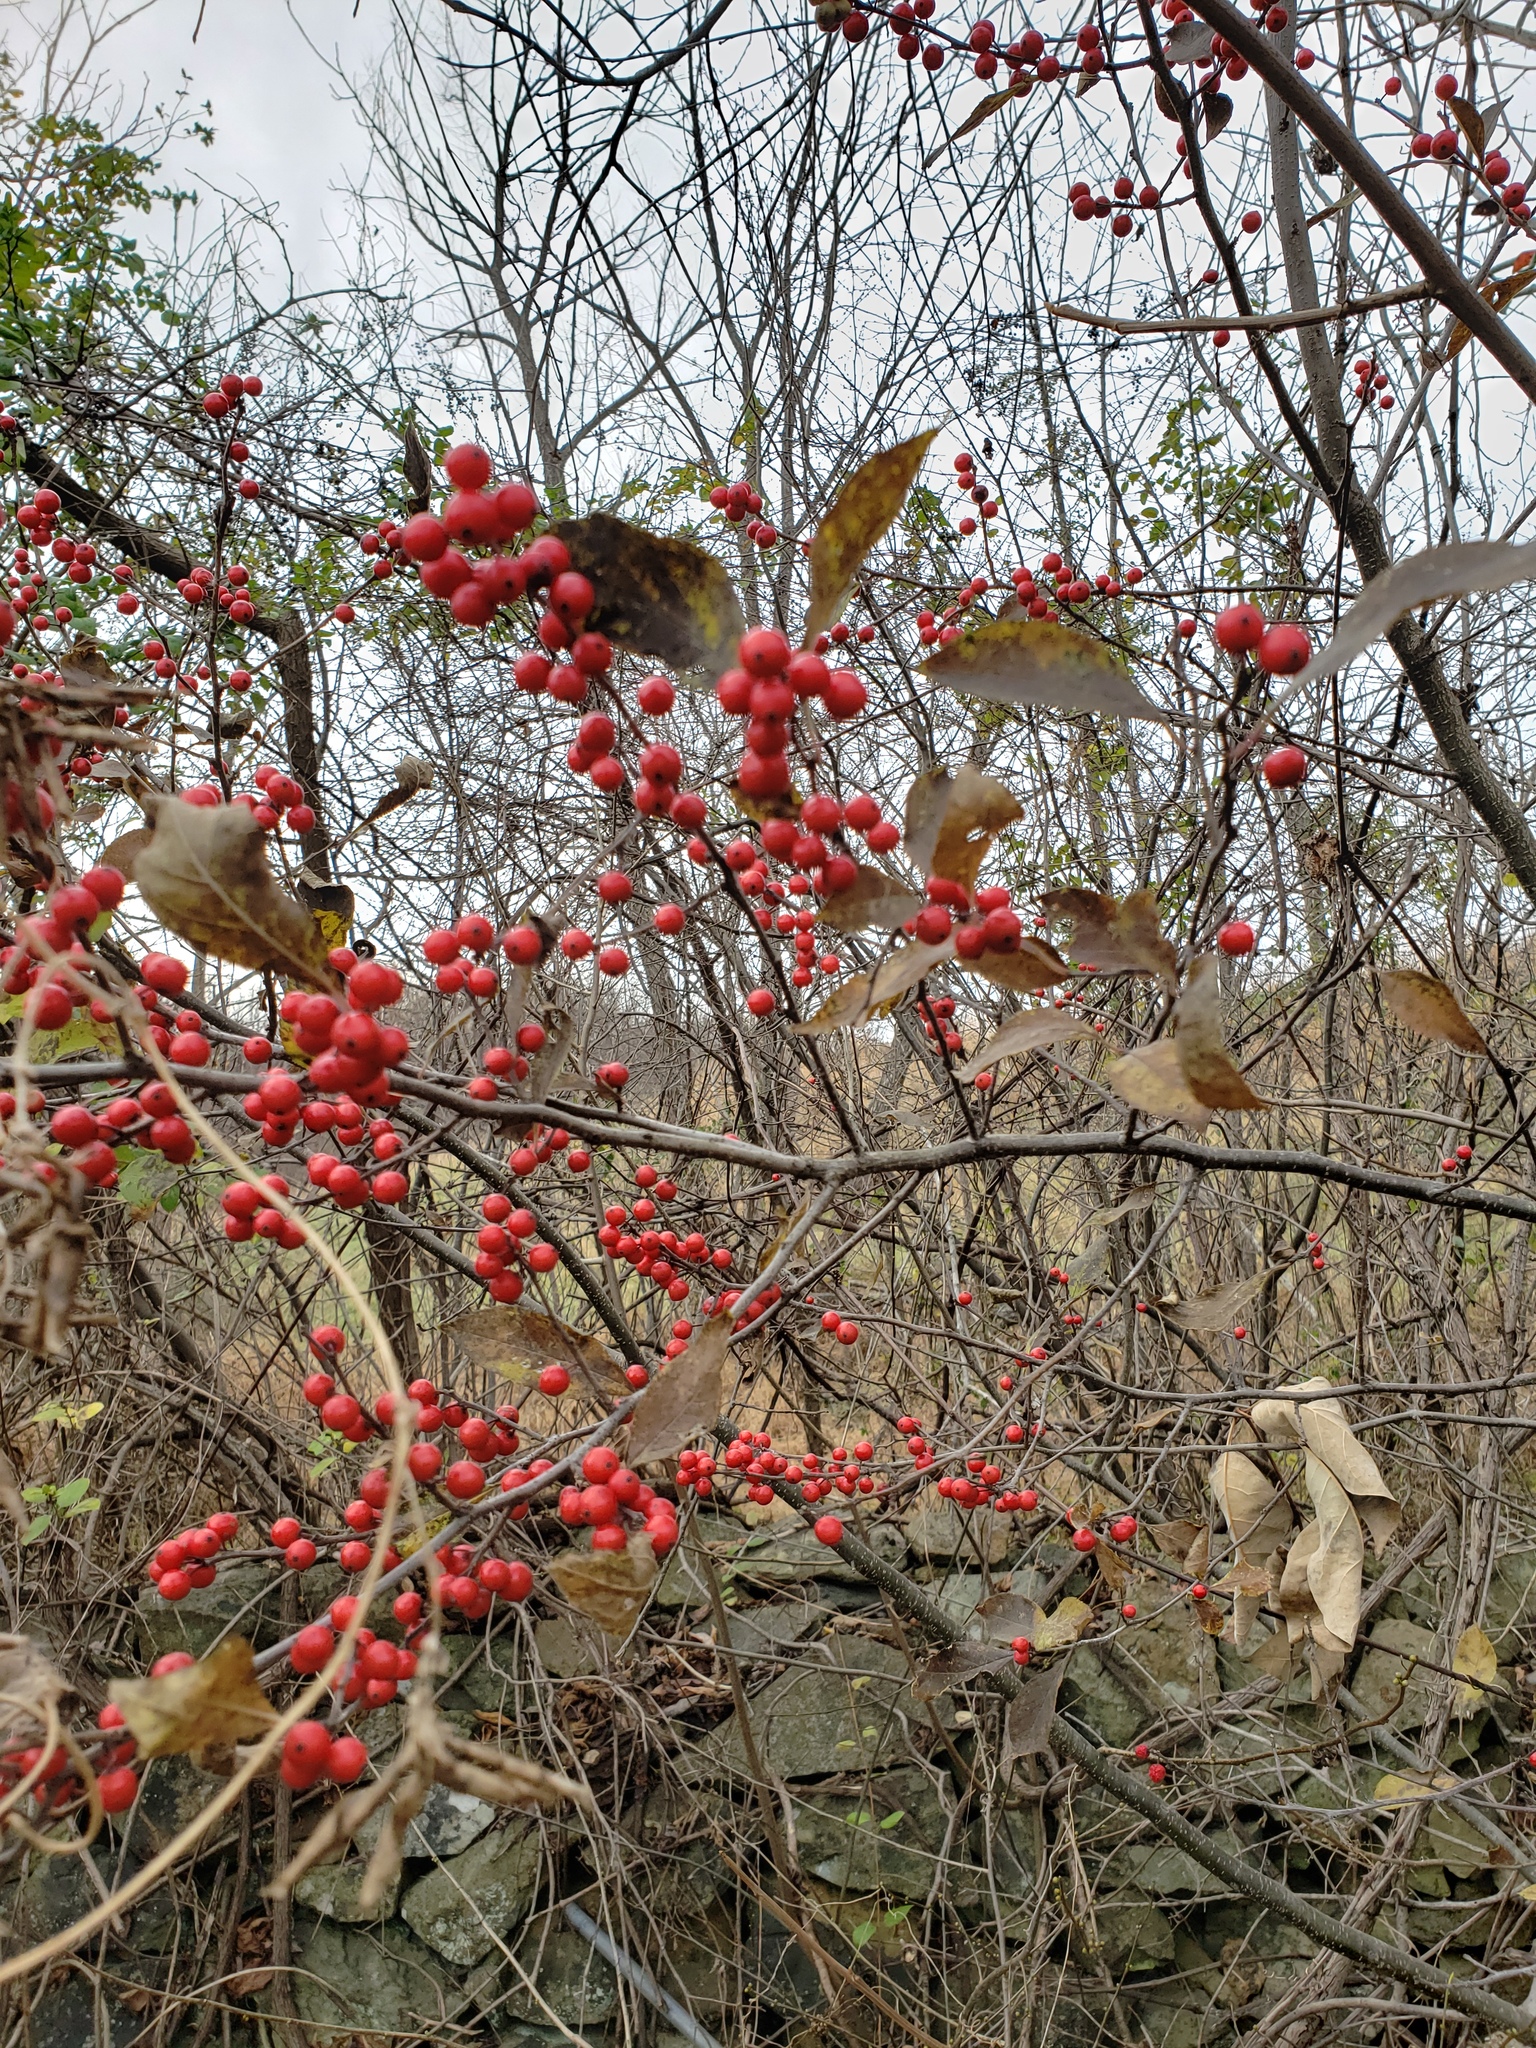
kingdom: Plantae
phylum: Tracheophyta
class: Magnoliopsida
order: Aquifoliales
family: Aquifoliaceae
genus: Ilex
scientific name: Ilex verticillata
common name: Virginia winterberry
